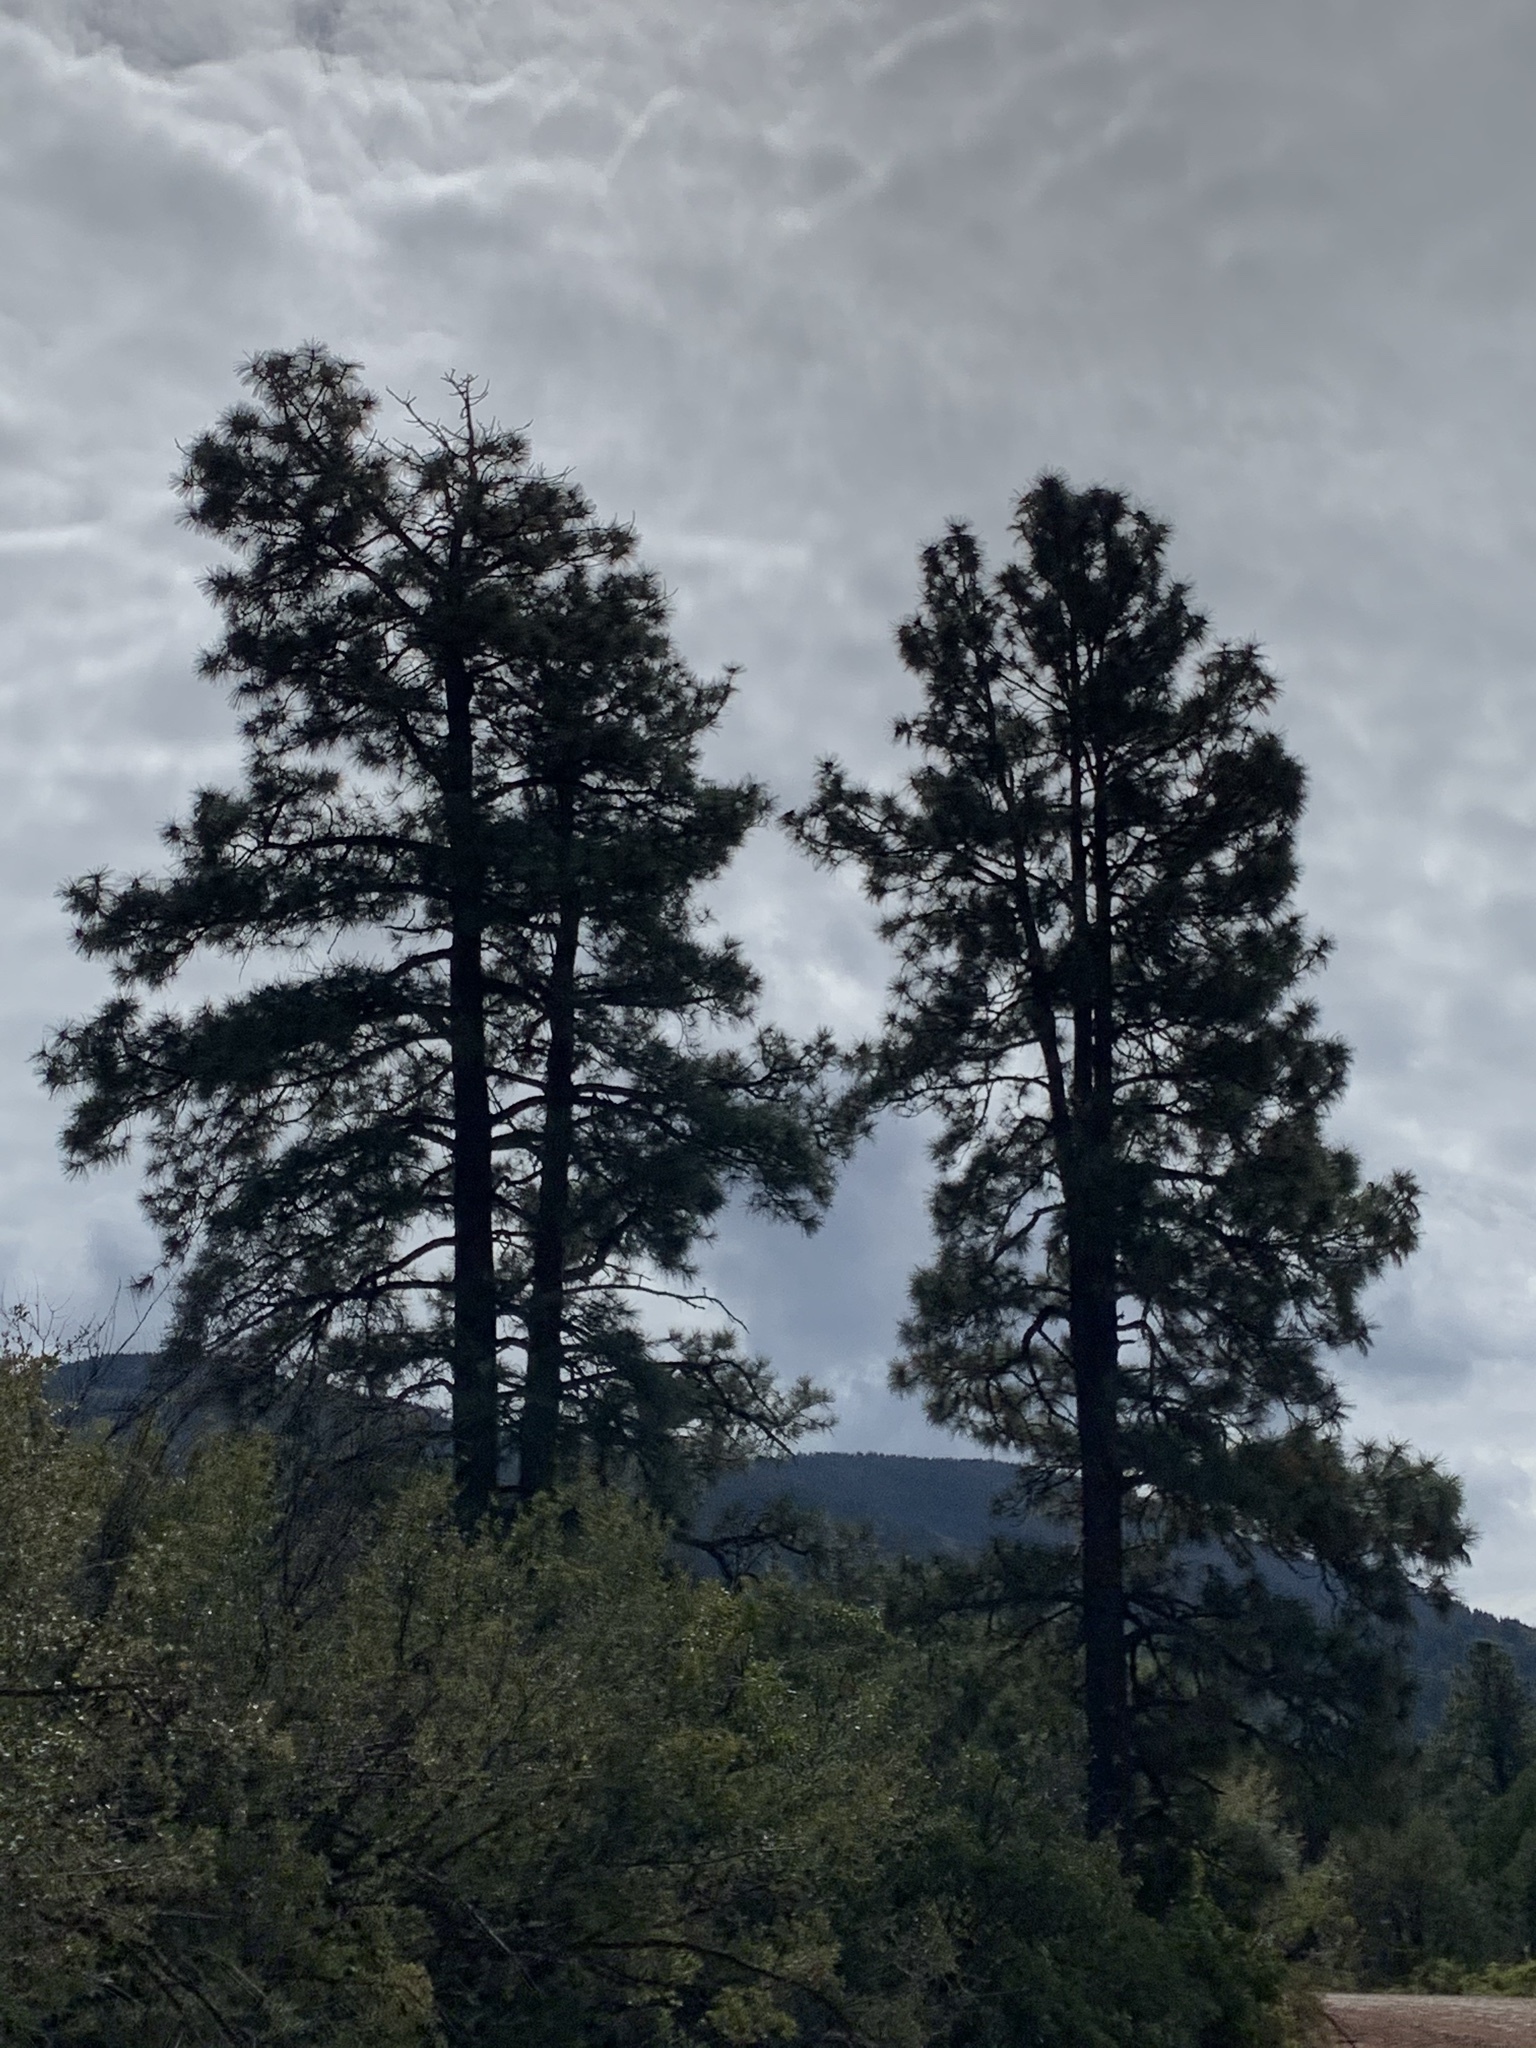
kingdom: Plantae
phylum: Tracheophyta
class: Pinopsida
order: Pinales
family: Pinaceae
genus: Pinus
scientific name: Pinus ponderosa
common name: Western yellow-pine
